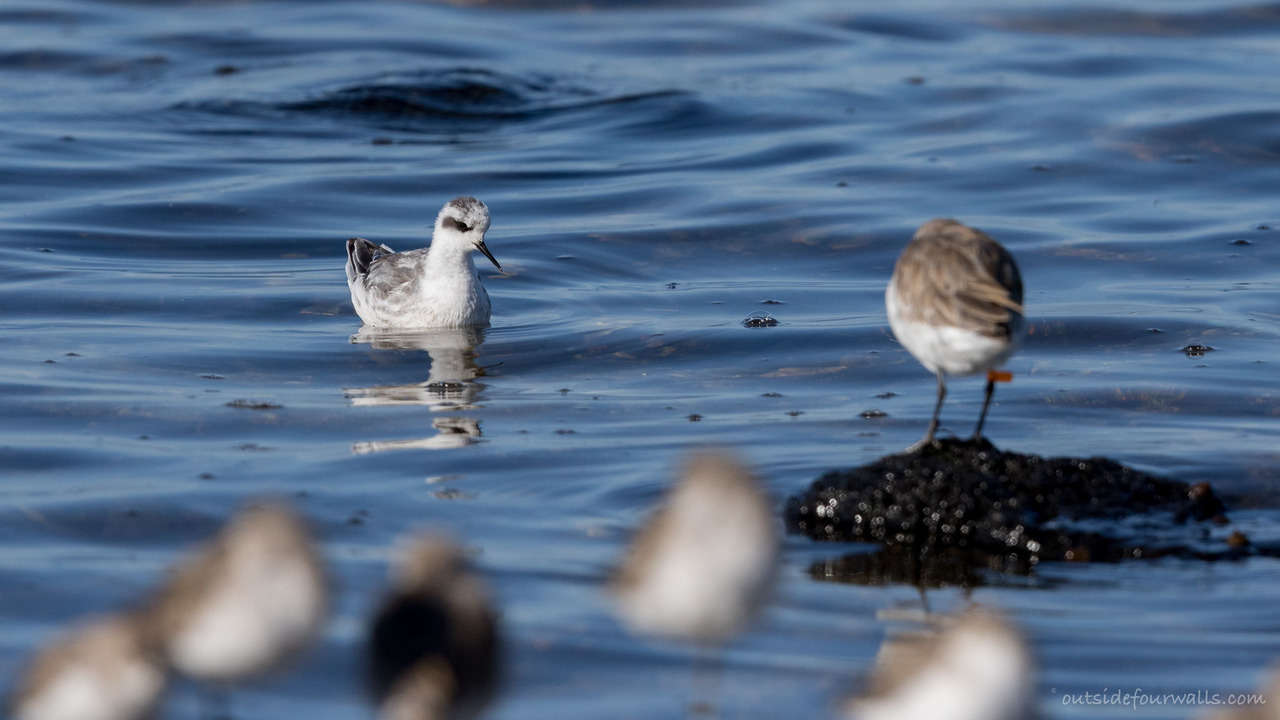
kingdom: Animalia
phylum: Chordata
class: Aves
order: Charadriiformes
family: Scolopacidae
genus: Phalaropus
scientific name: Phalaropus lobatus
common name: Red-necked phalarope
